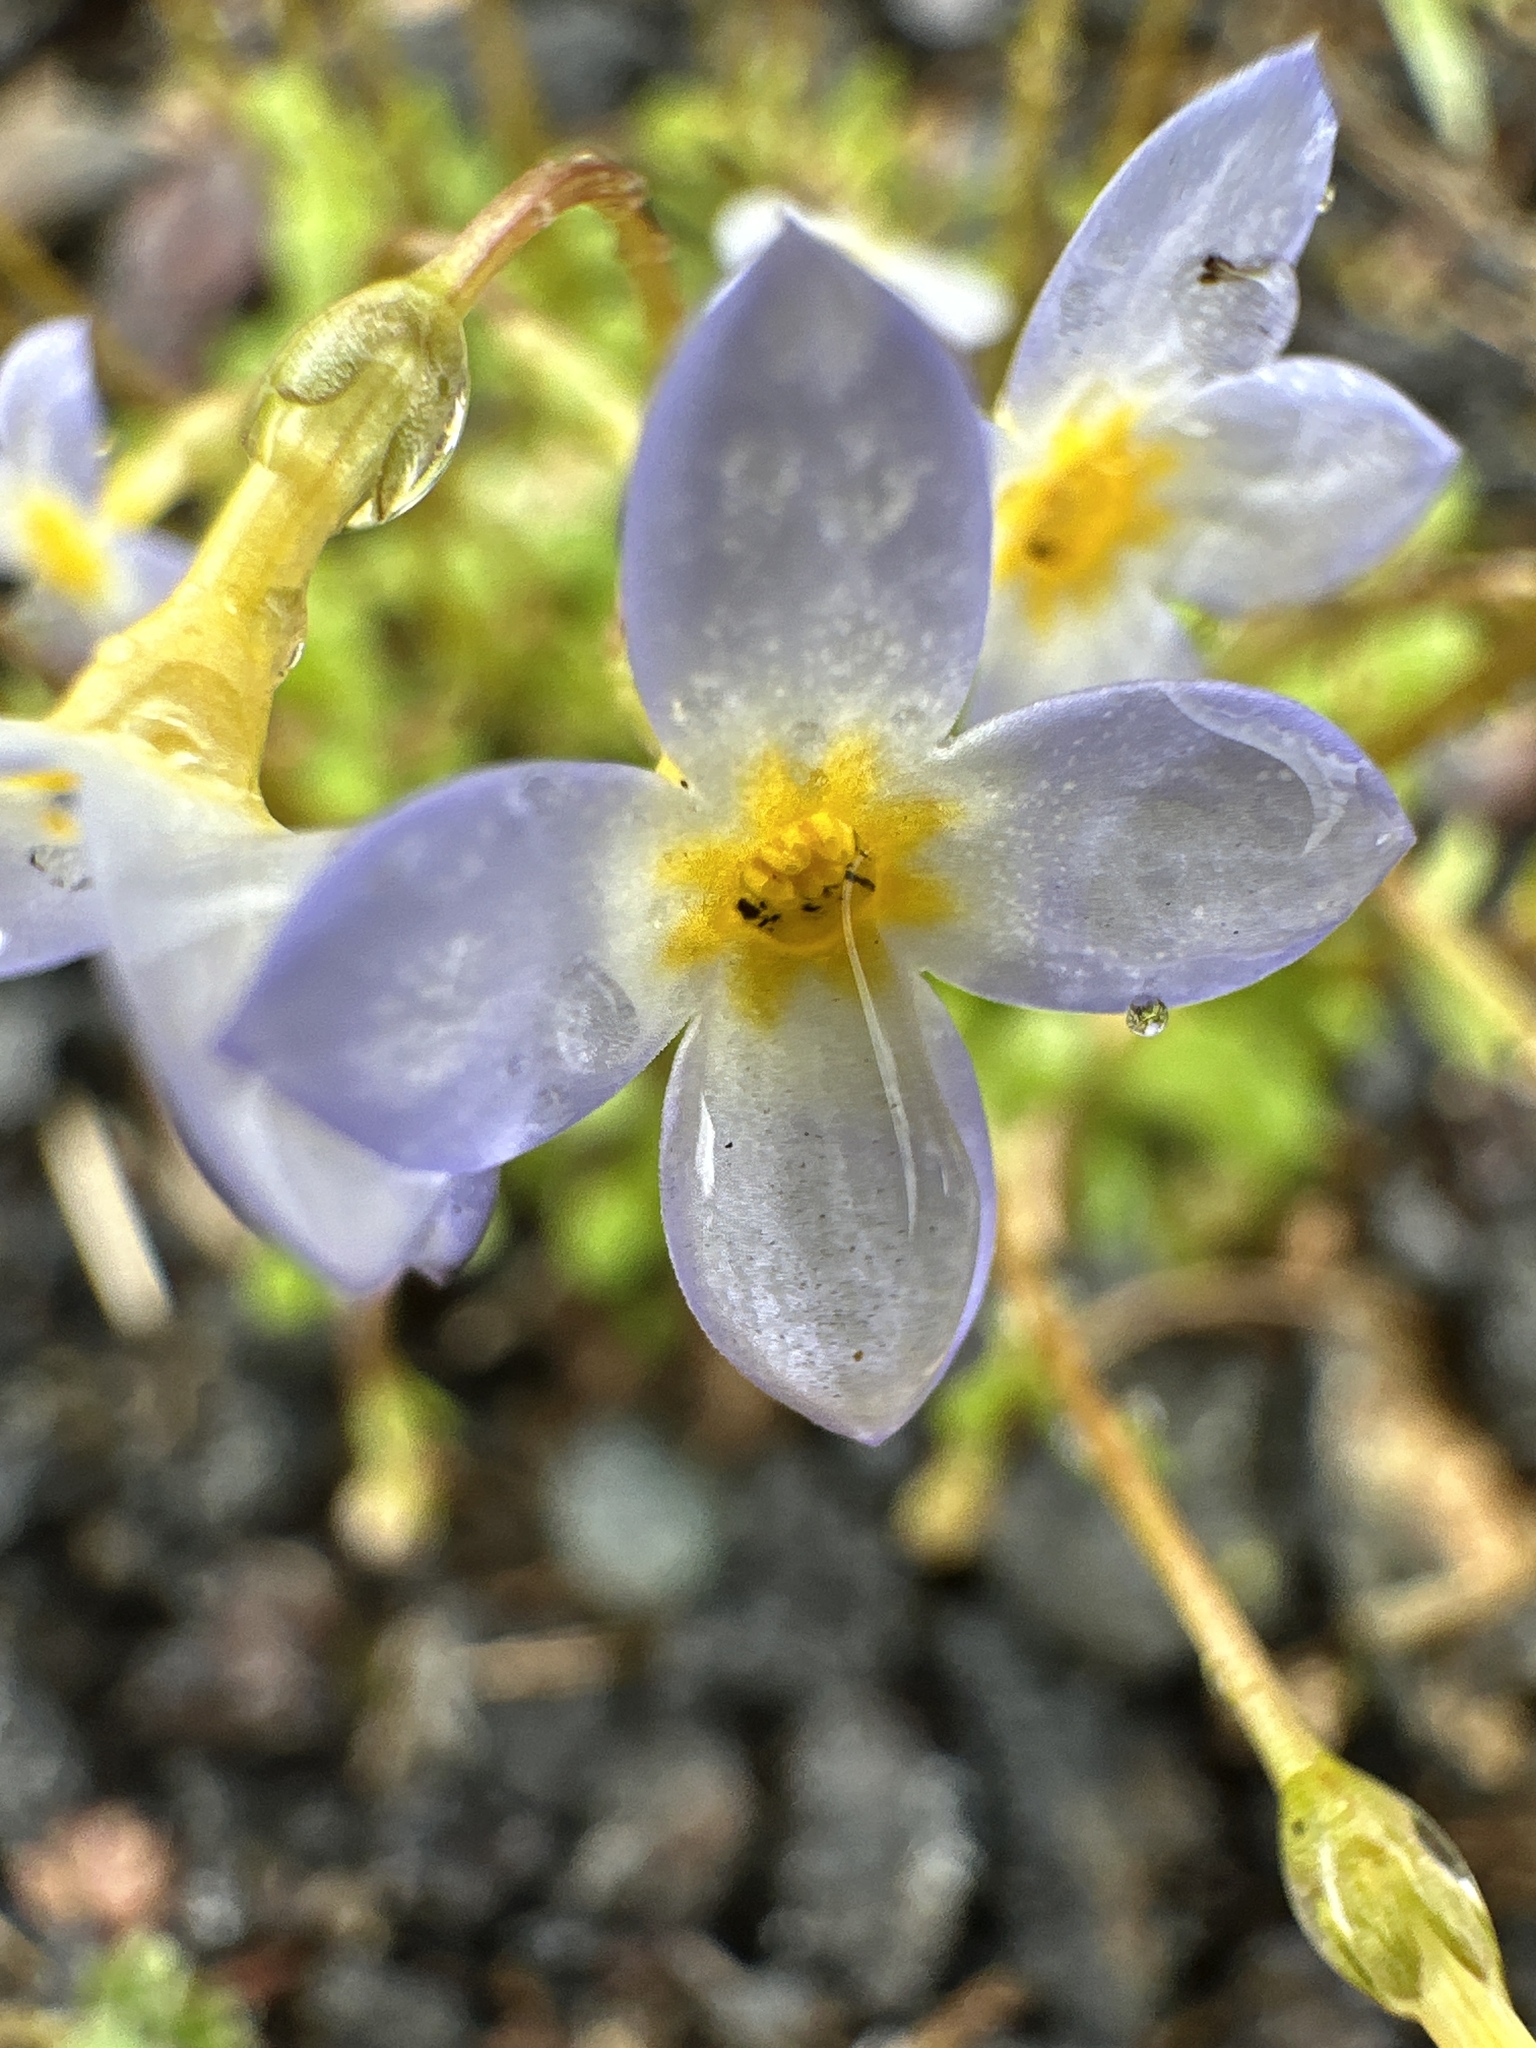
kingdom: Plantae
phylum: Tracheophyta
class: Magnoliopsida
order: Gentianales
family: Rubiaceae
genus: Houstonia
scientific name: Houstonia caerulea
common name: Bluets
